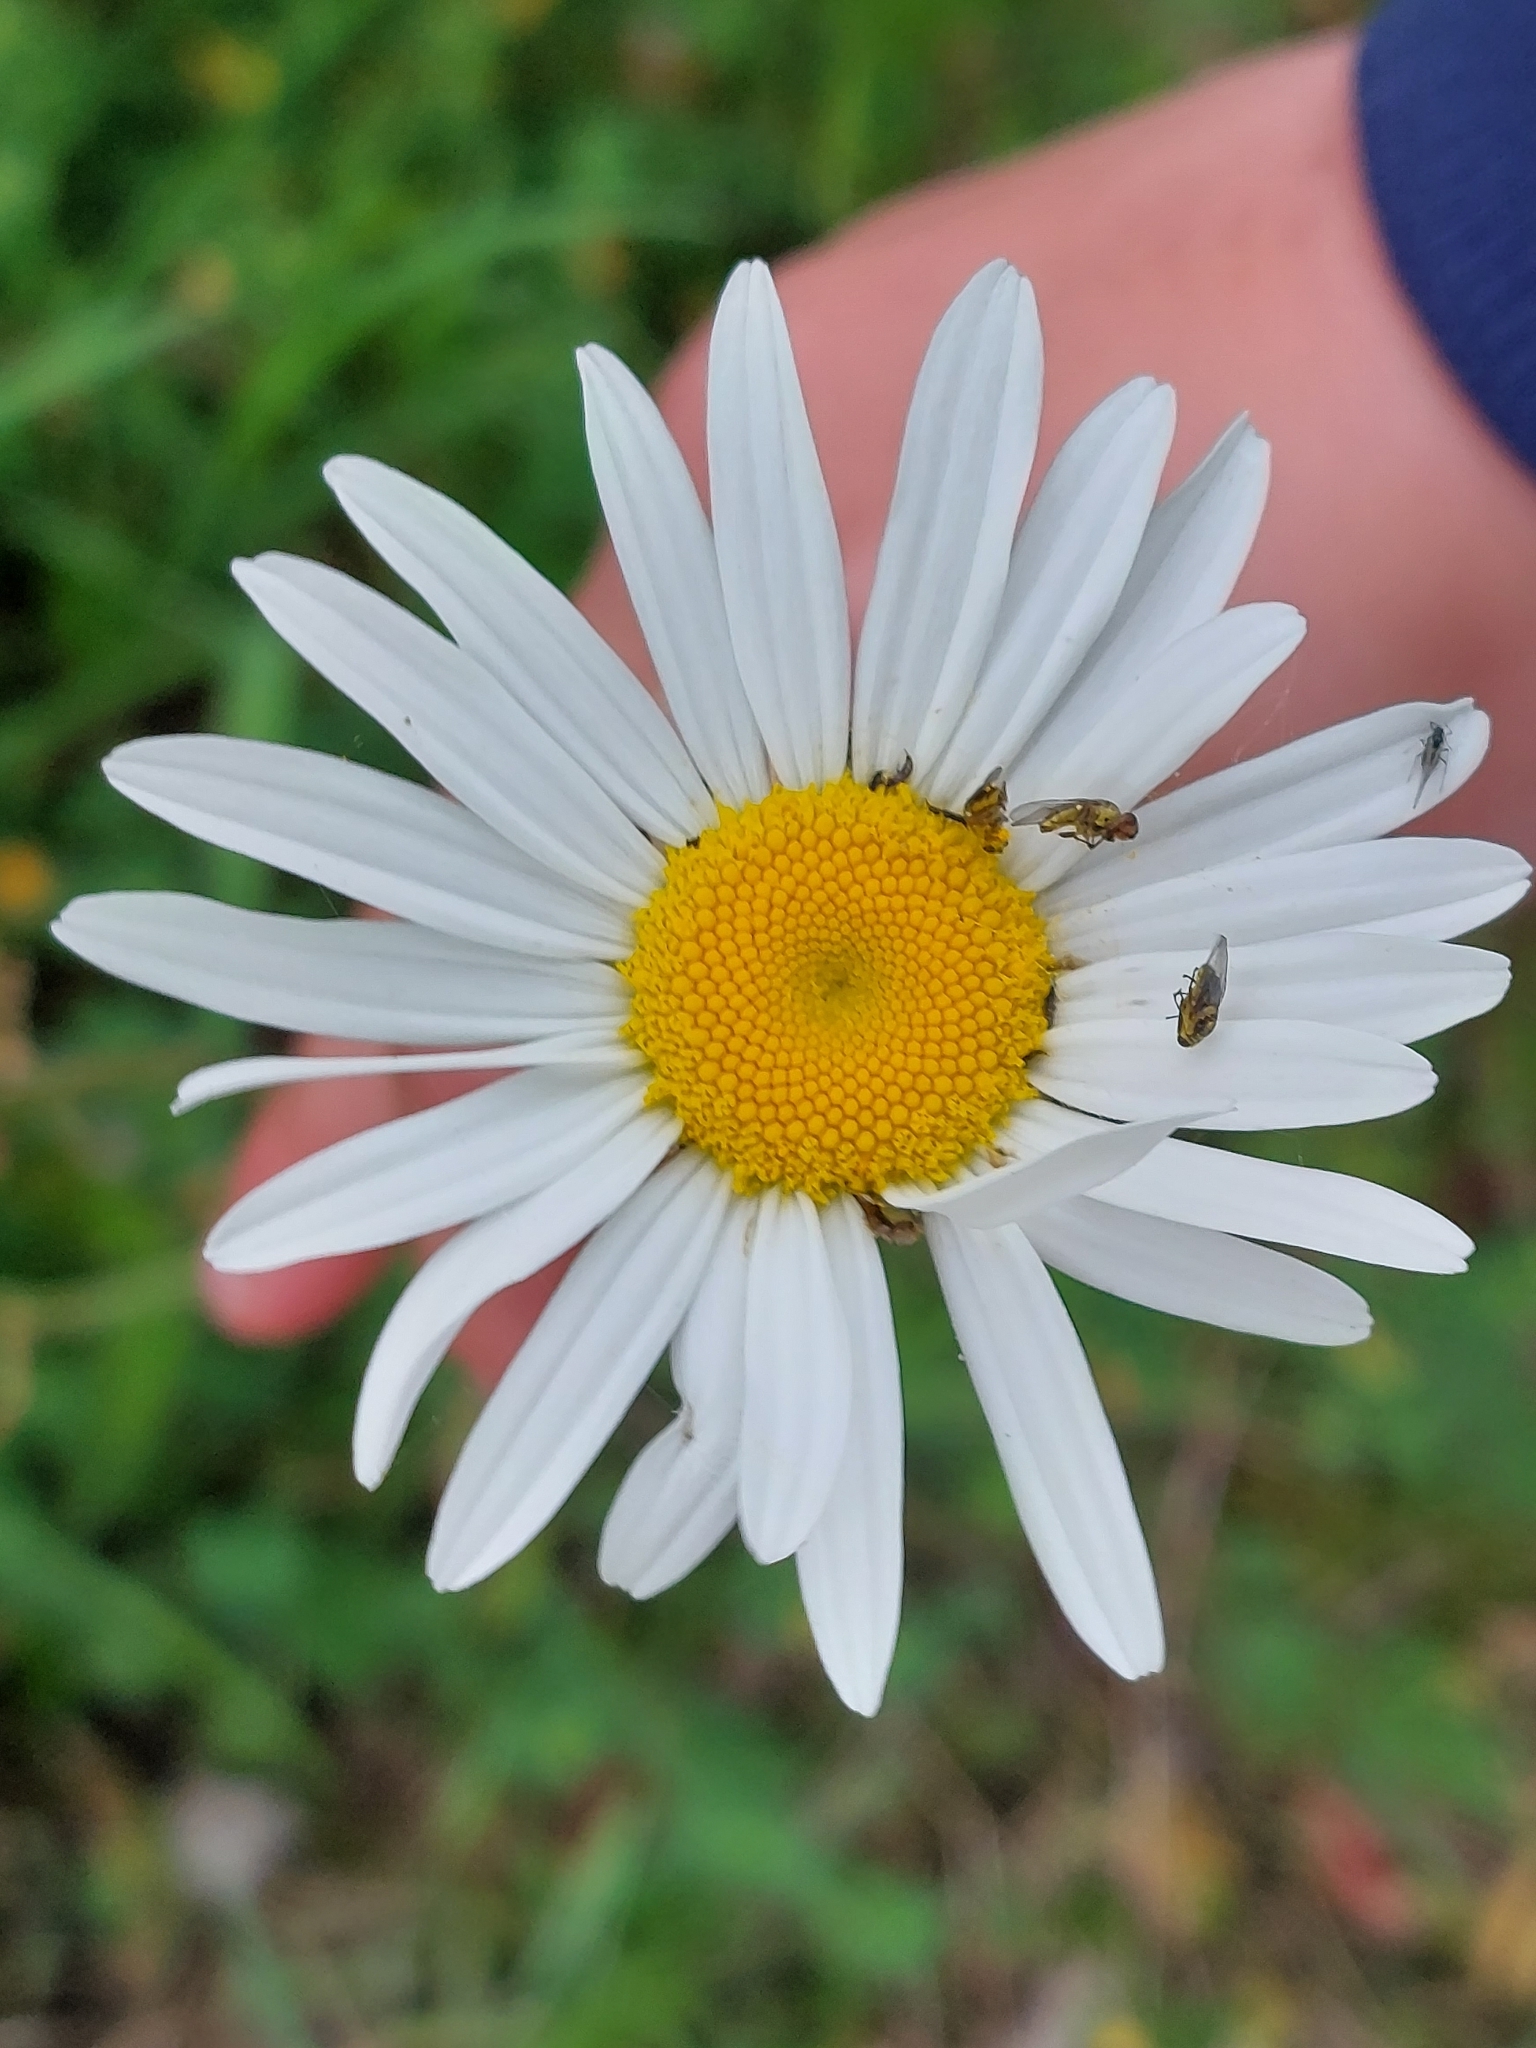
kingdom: Plantae
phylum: Tracheophyta
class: Magnoliopsida
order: Asterales
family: Asteraceae
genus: Leucanthemum
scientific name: Leucanthemum vulgare
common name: Oxeye daisy
